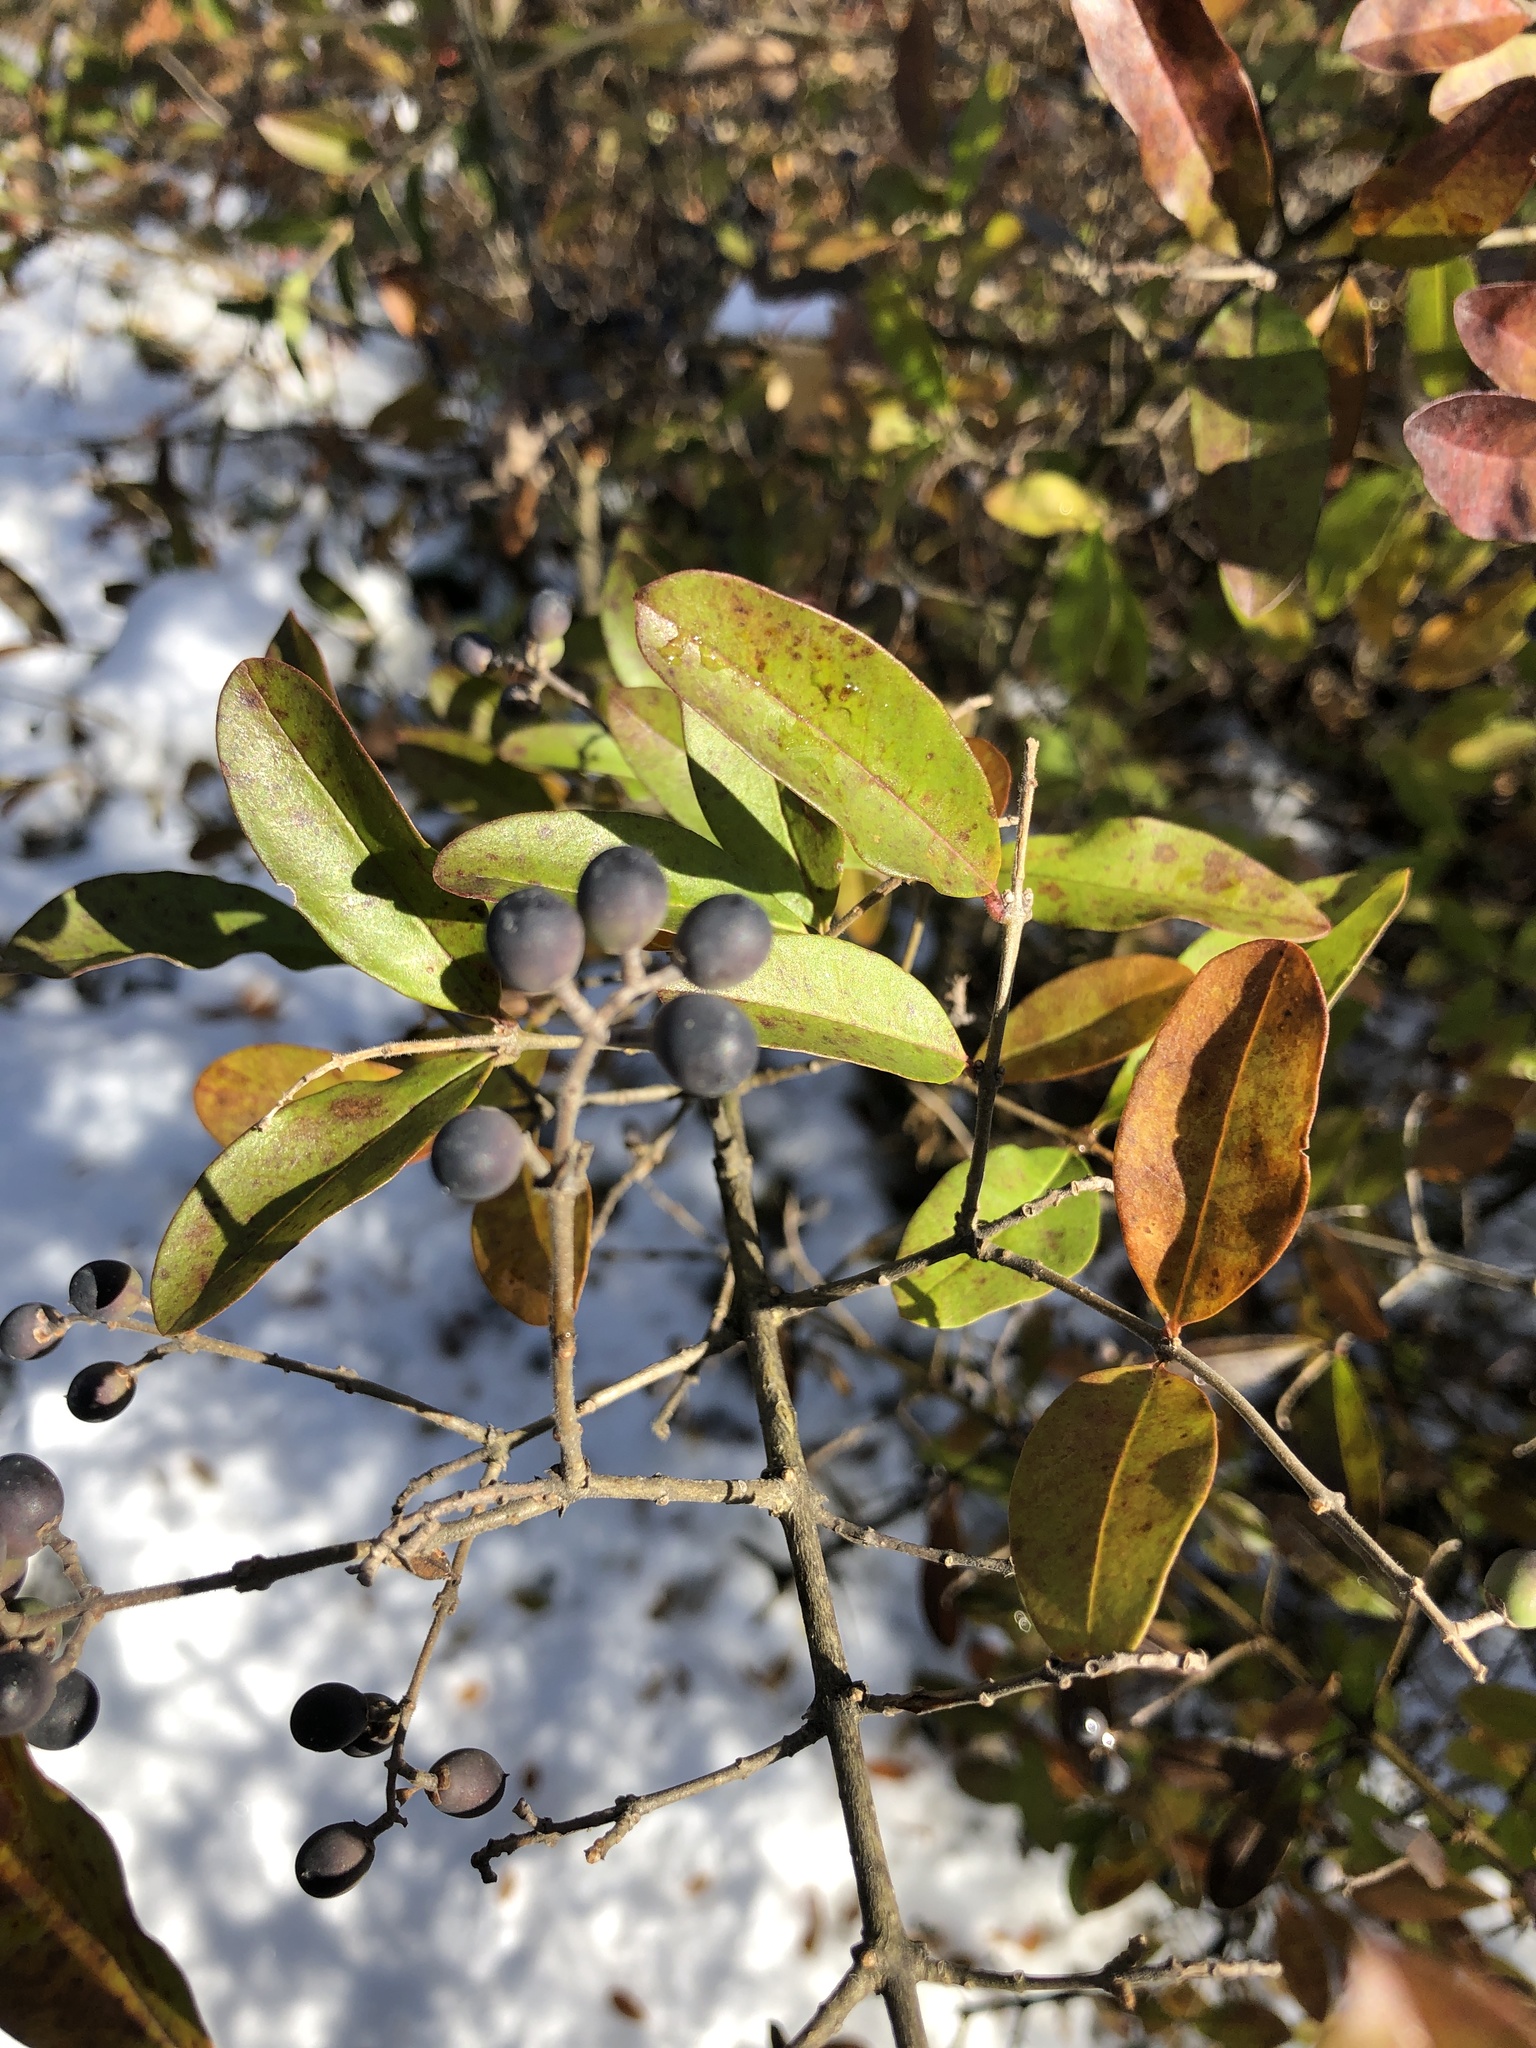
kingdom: Plantae
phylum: Tracheophyta
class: Magnoliopsida
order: Lamiales
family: Oleaceae
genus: Ligustrum
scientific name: Ligustrum obtusifolium
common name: Border privet
